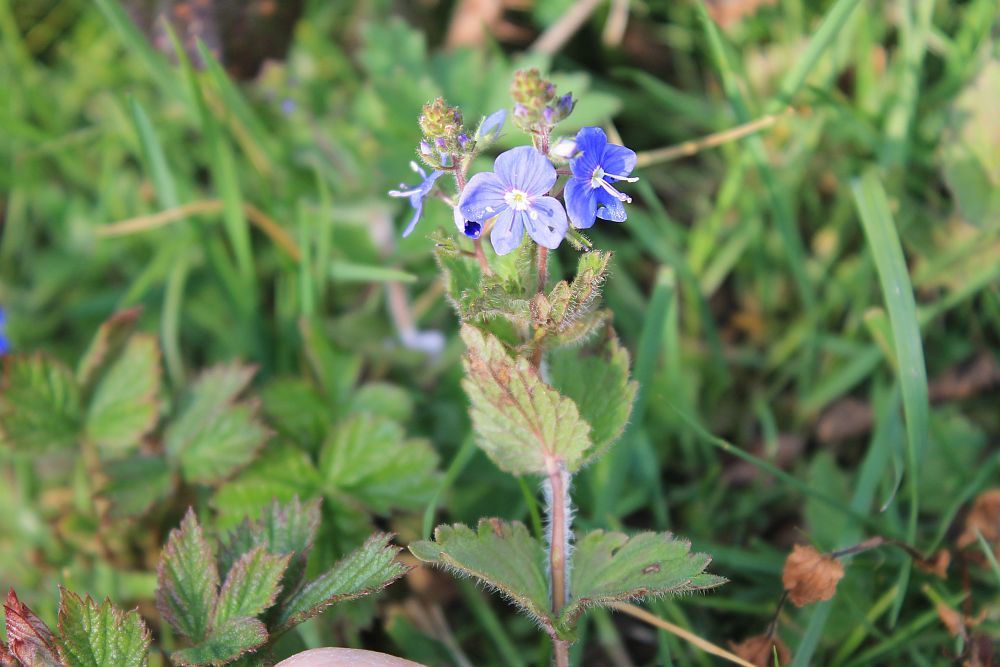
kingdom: Plantae
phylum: Tracheophyta
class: Magnoliopsida
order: Lamiales
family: Plantaginaceae
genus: Veronica
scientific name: Veronica chamaedrys
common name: Germander speedwell
